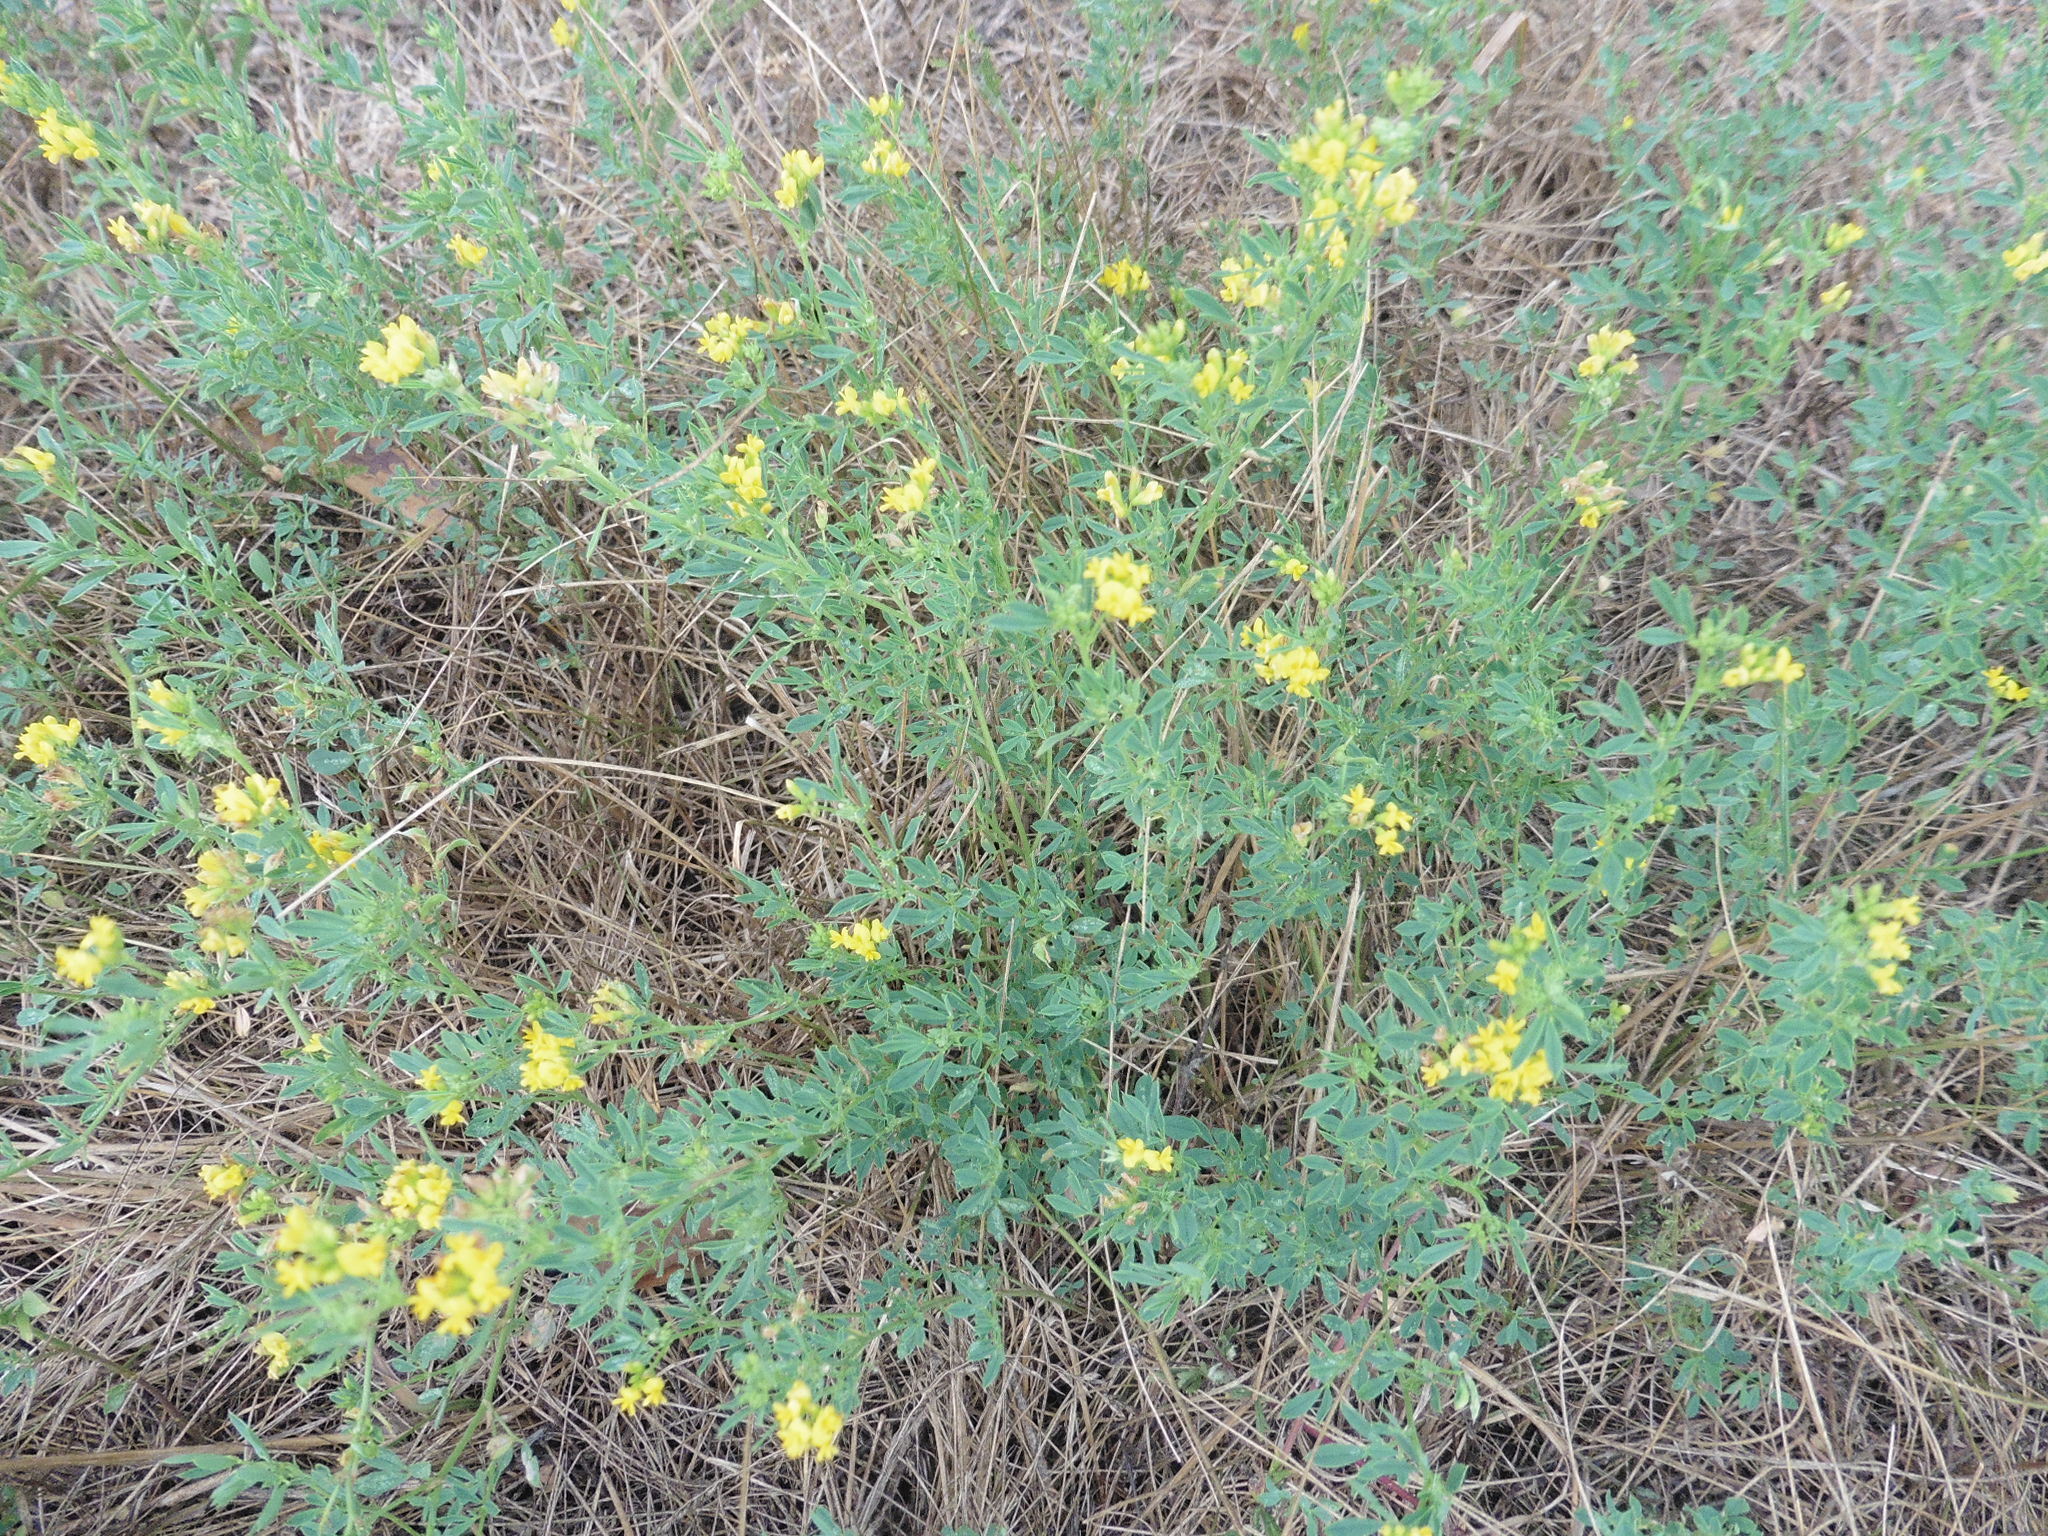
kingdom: Plantae
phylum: Tracheophyta
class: Magnoliopsida
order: Fabales
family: Fabaceae
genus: Medicago
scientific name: Medicago falcata
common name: Sickle medick
